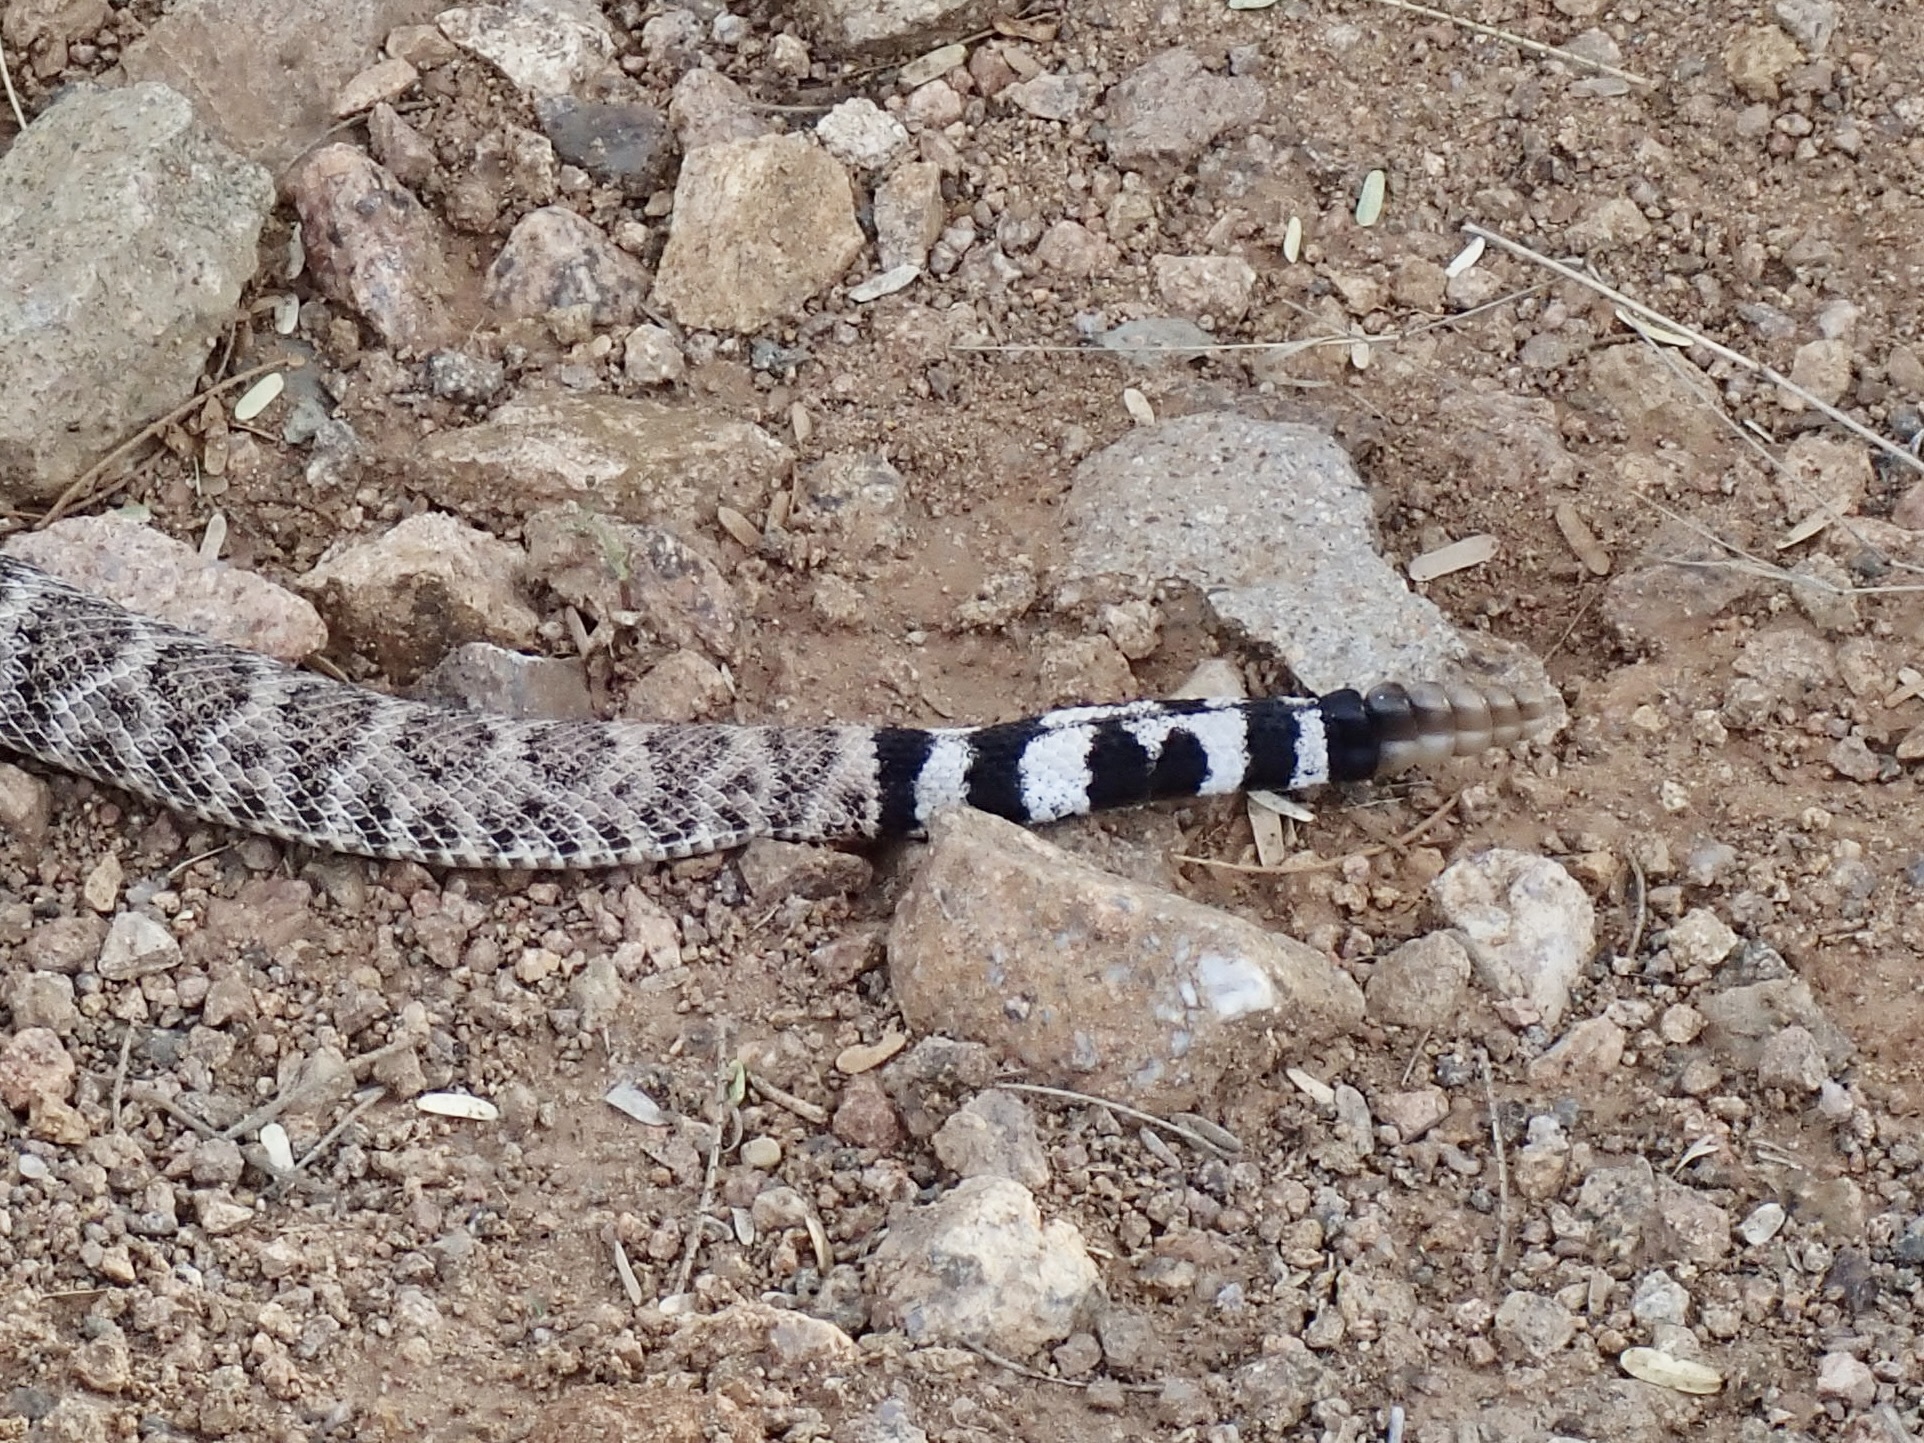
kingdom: Animalia
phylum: Chordata
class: Squamata
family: Viperidae
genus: Crotalus
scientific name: Crotalus atrox
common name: Western diamond-backed rattlesnake
